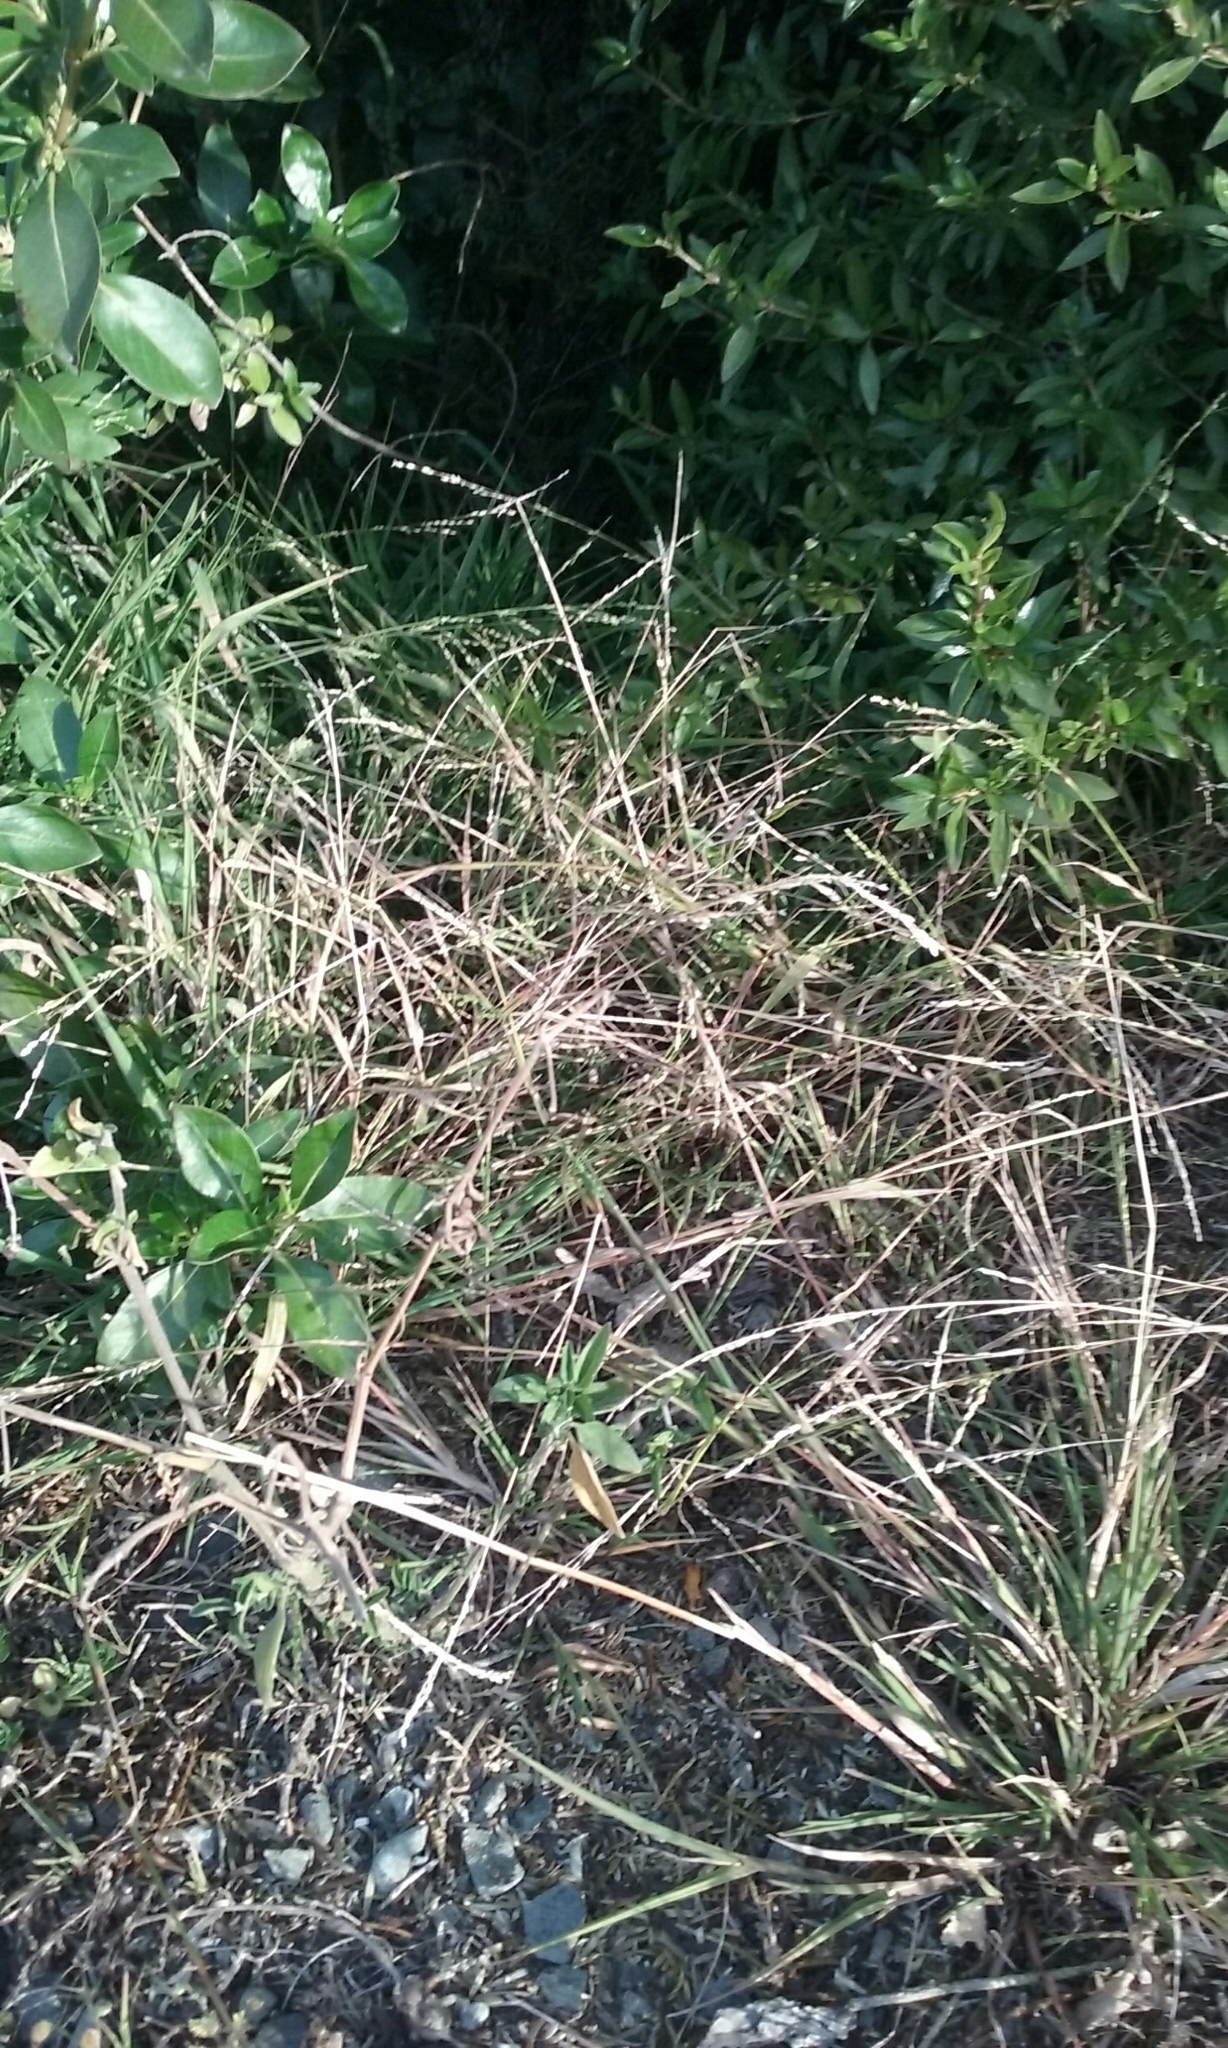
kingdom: Plantae
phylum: Tracheophyta
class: Liliopsida
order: Poales
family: Poaceae
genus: Ehrharta
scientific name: Ehrharta erecta
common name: Panic veldtgrass
